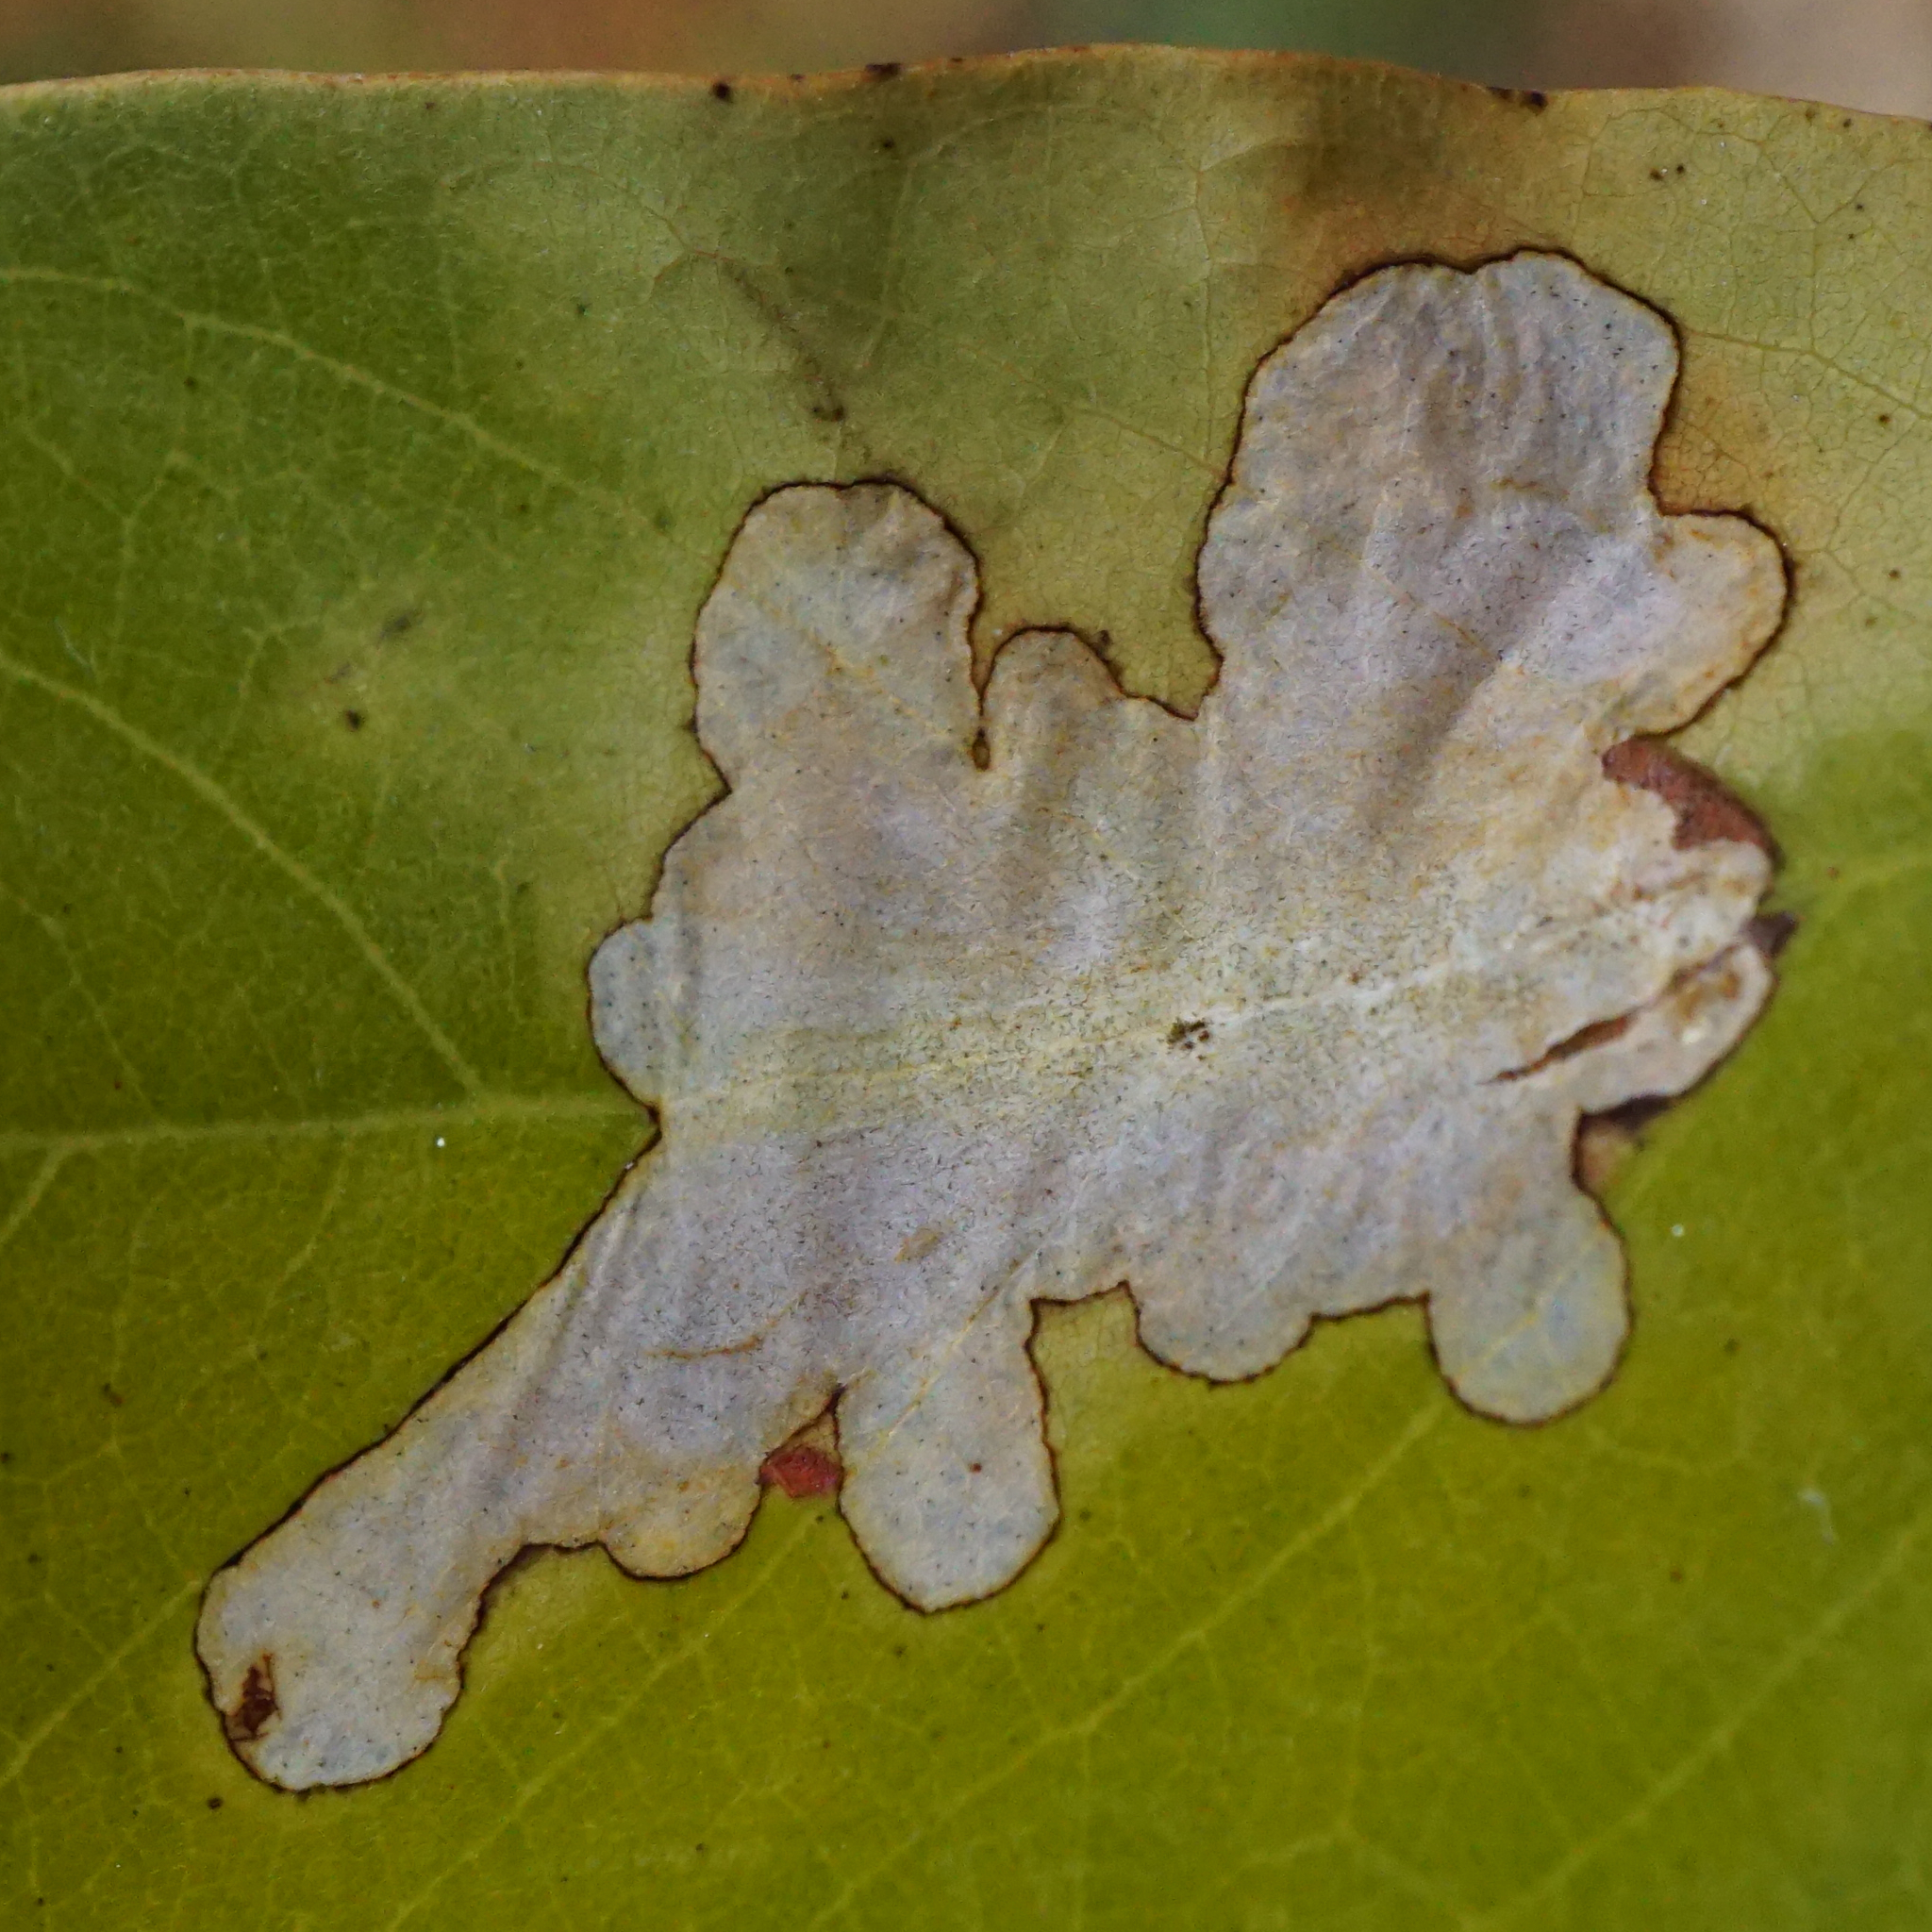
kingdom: Animalia
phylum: Arthropoda
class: Insecta
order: Lepidoptera
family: Gracillariidae
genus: Parectopa
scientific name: Parectopa robiniella
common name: Locust digitate leafminer
